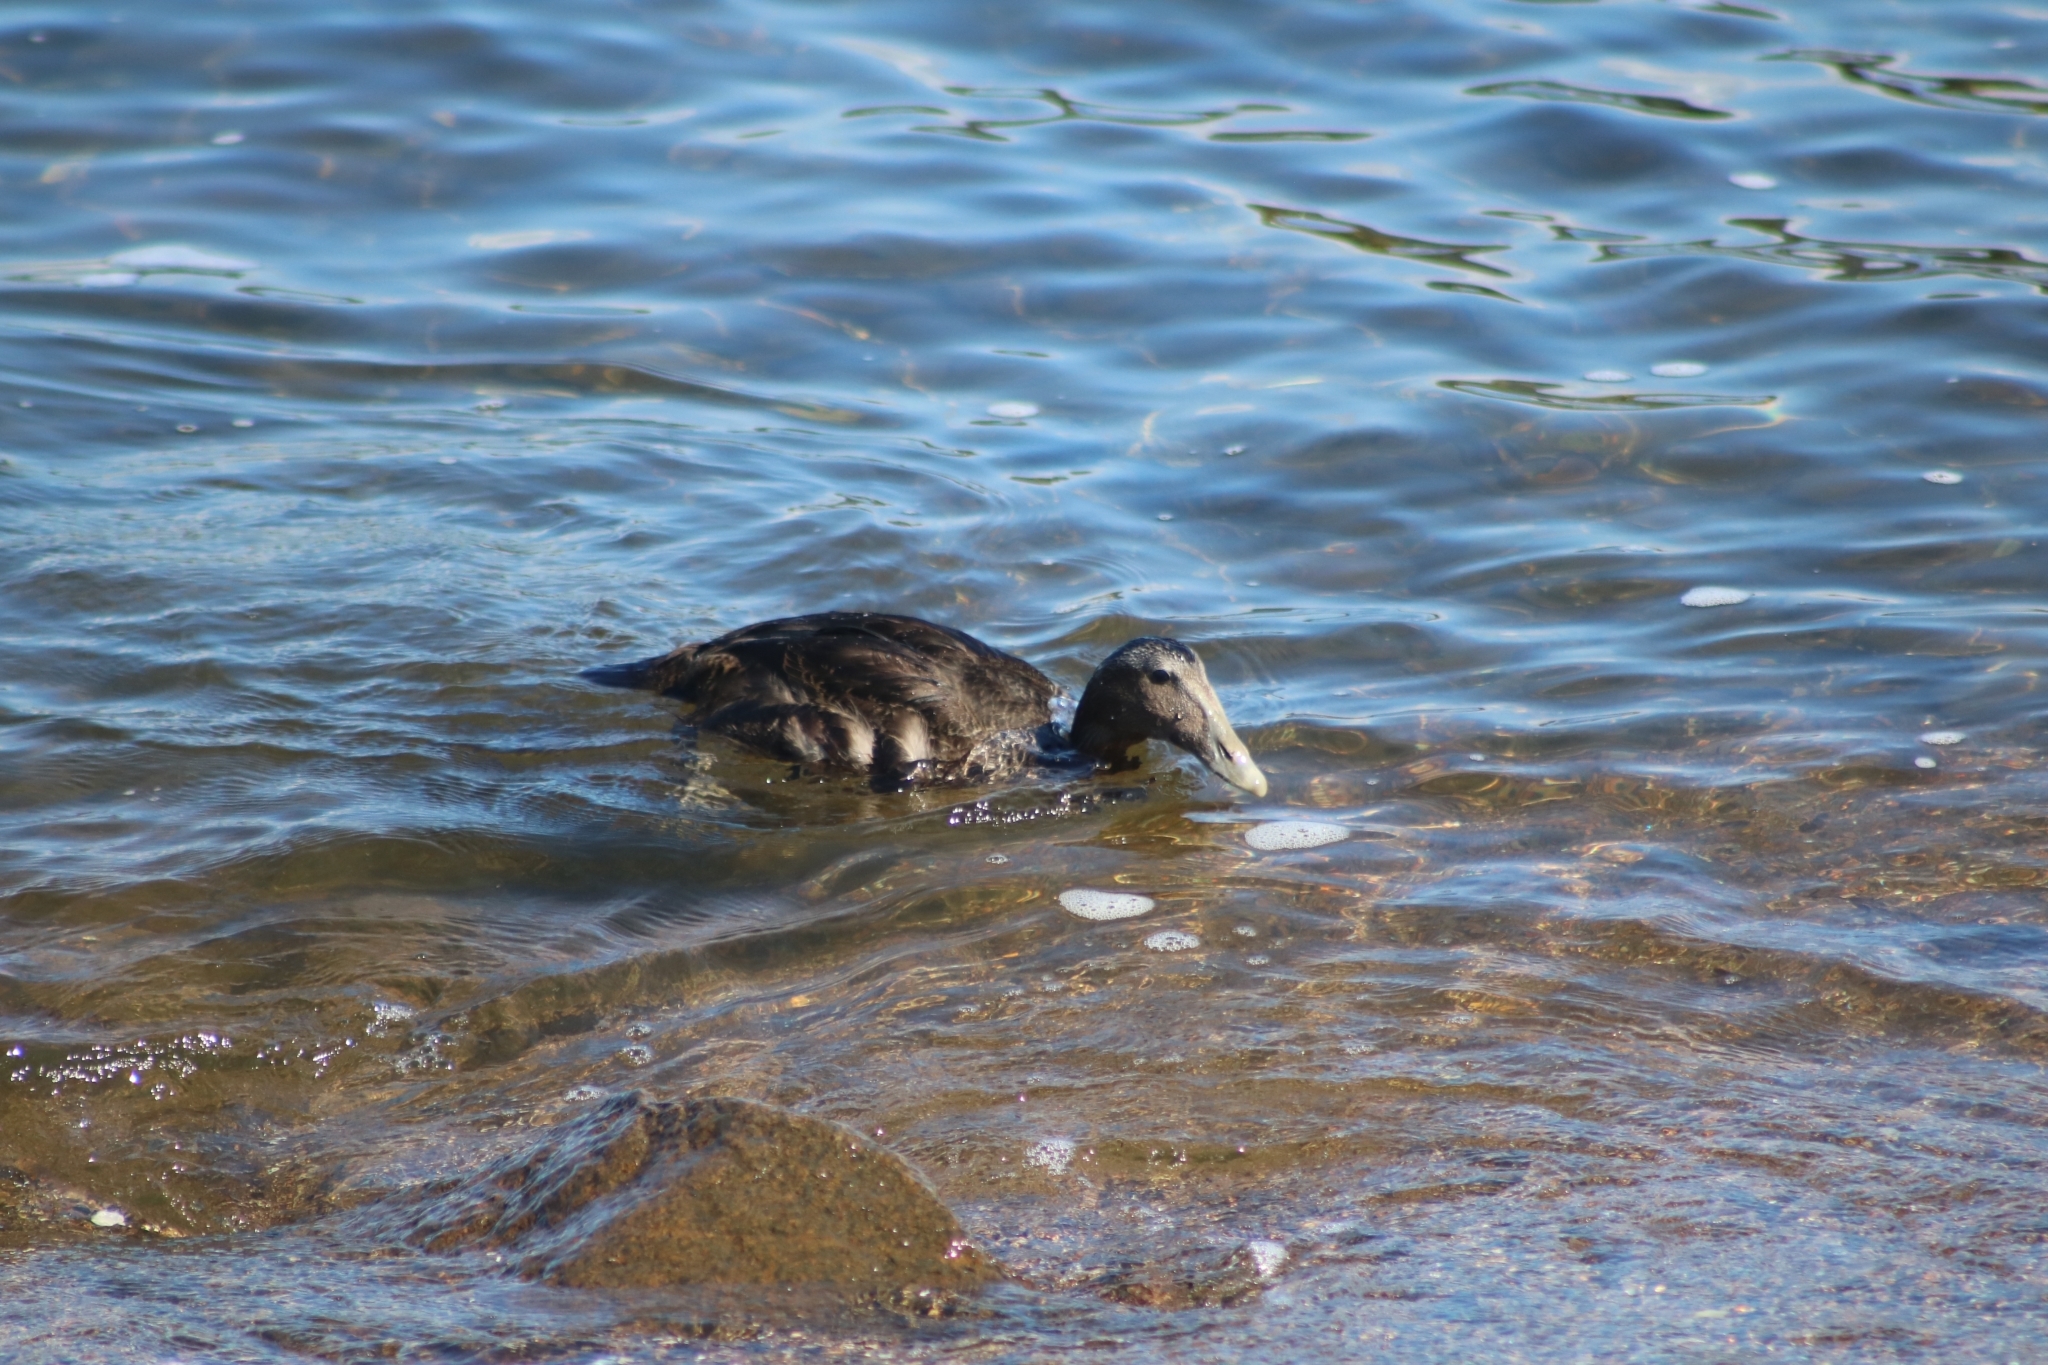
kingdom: Animalia
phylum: Chordata
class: Aves
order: Anseriformes
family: Anatidae
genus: Somateria
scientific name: Somateria mollissima
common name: Common eider
